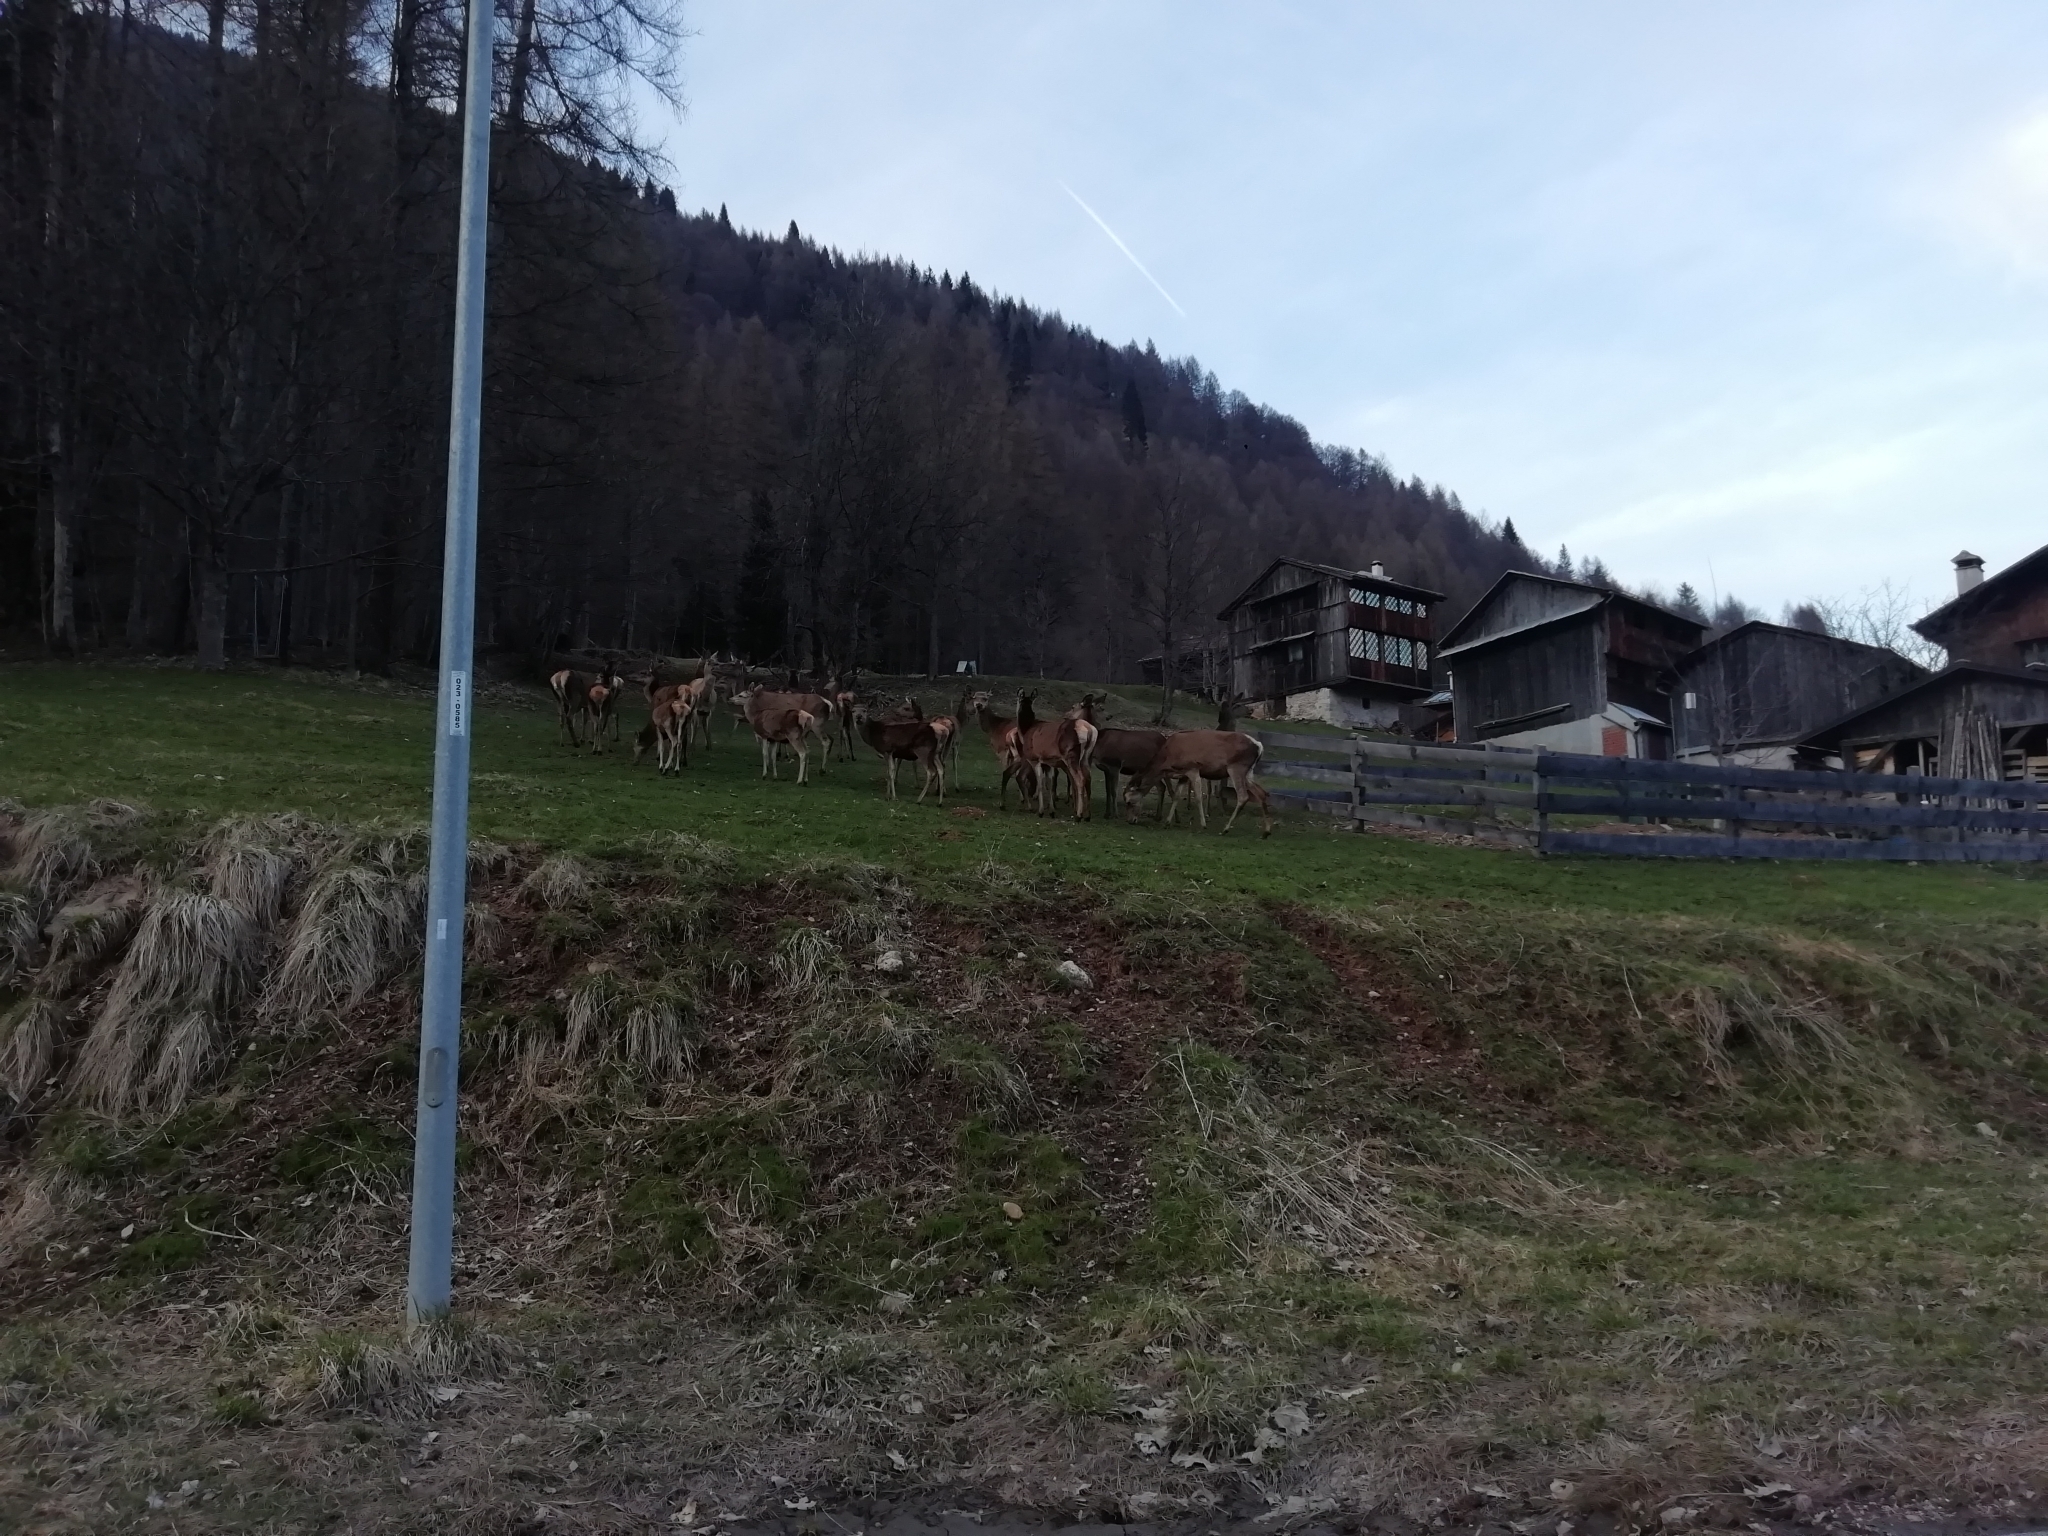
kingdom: Animalia
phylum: Chordata
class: Mammalia
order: Artiodactyla
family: Cervidae
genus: Cervus
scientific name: Cervus elaphus
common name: Red deer
